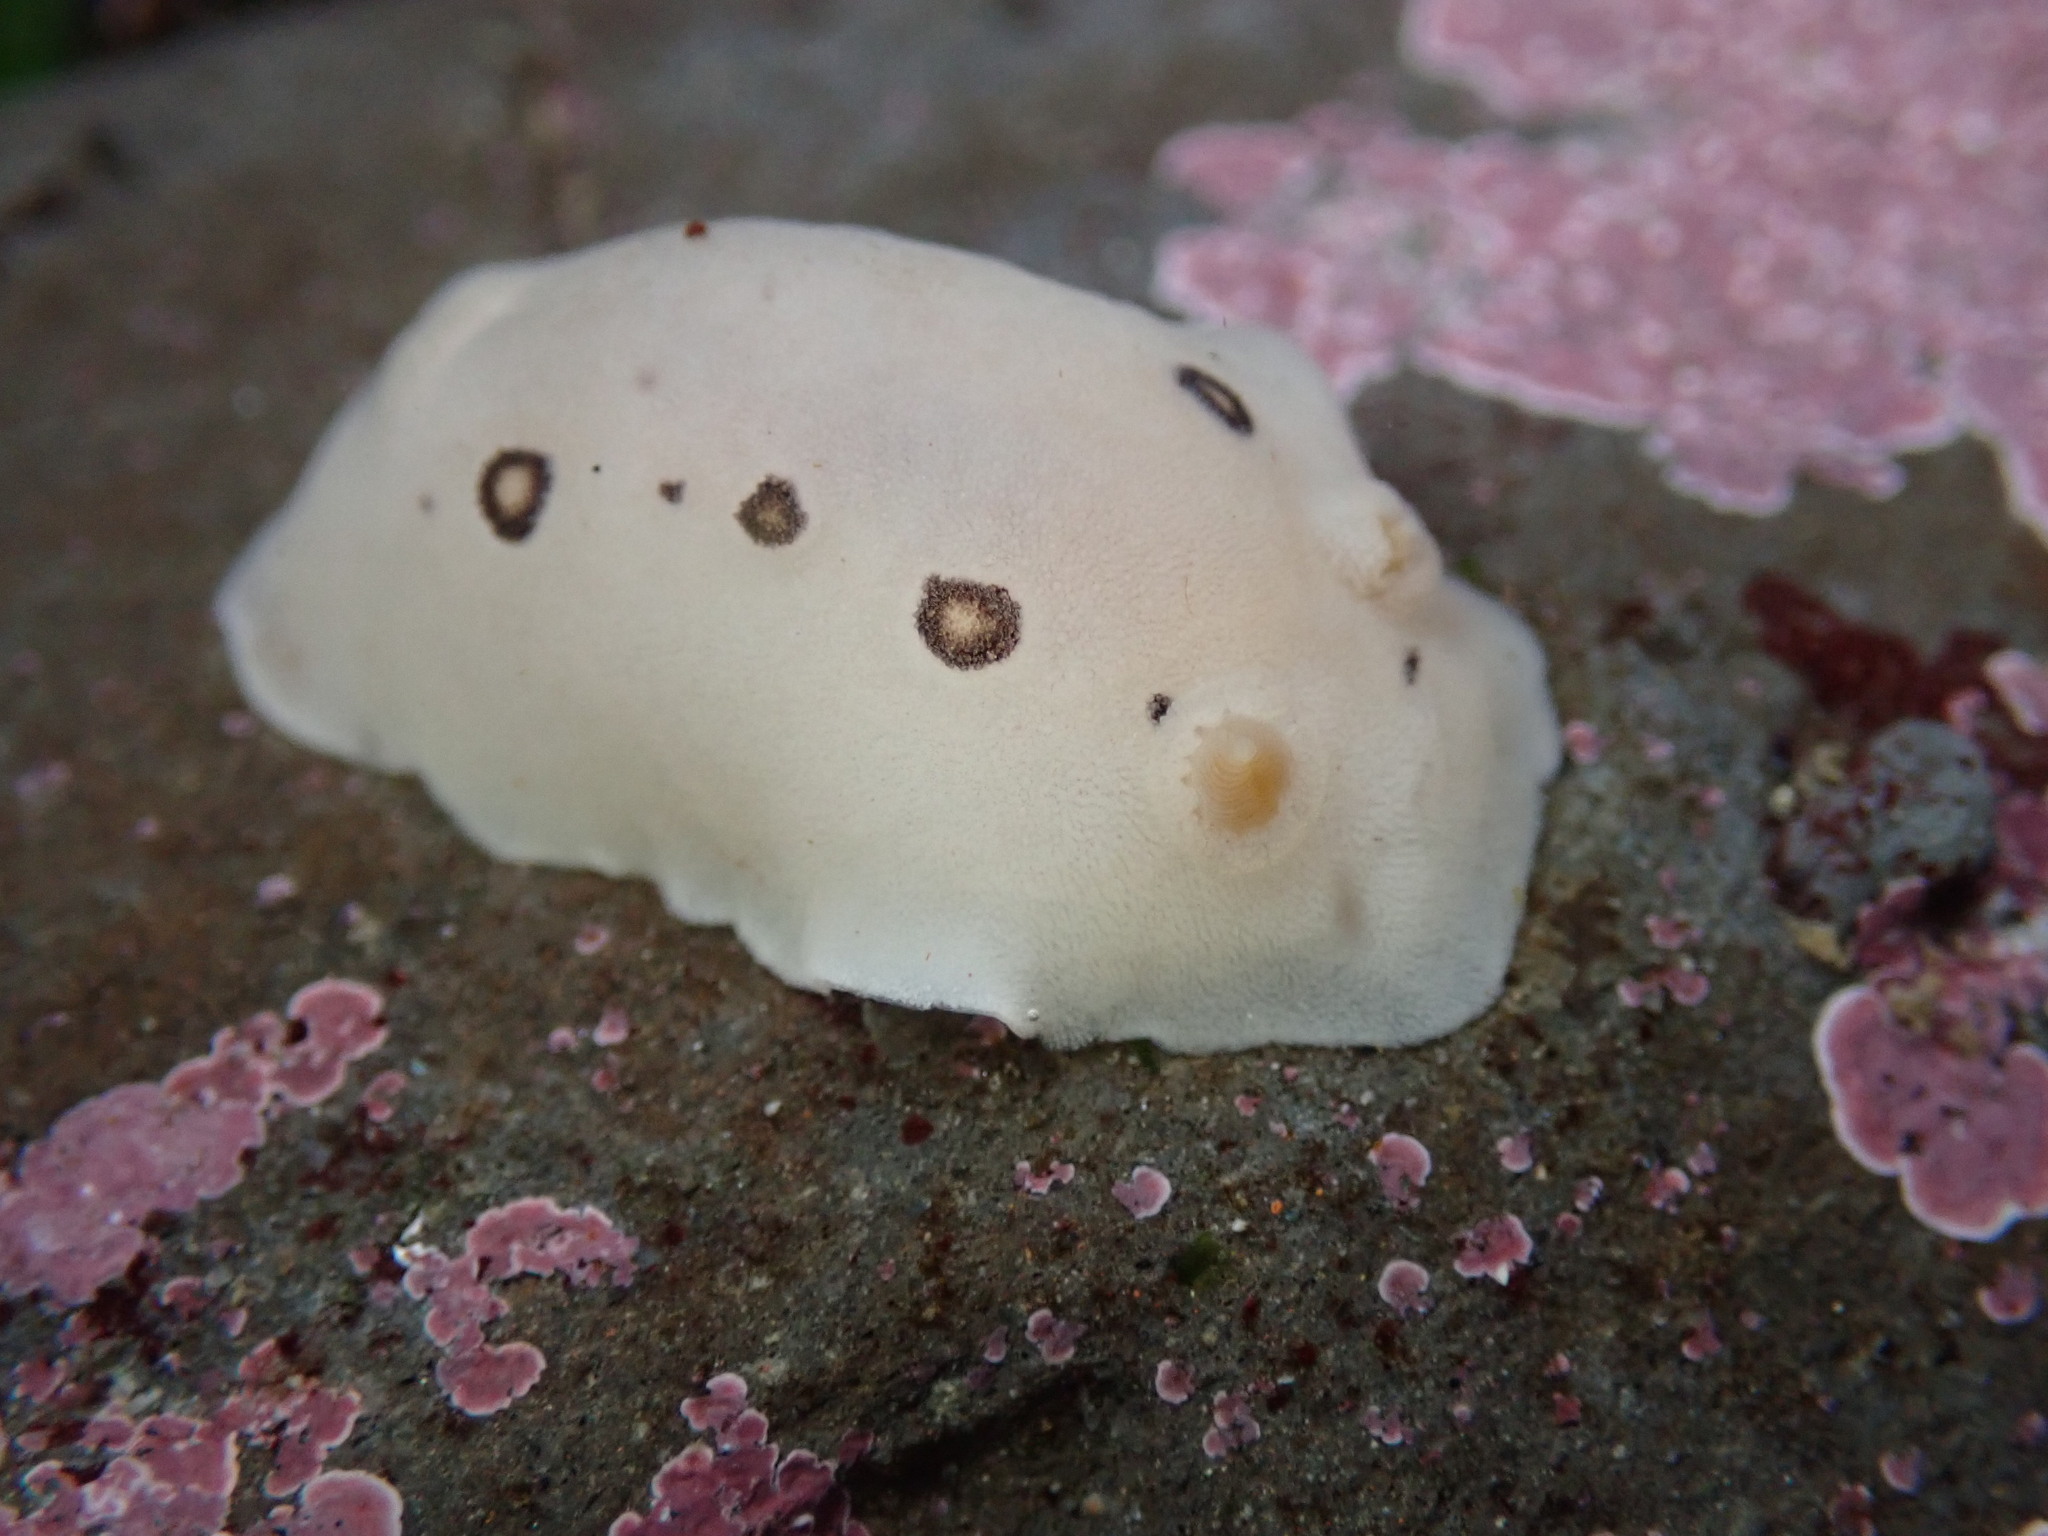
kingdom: Animalia
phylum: Mollusca
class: Gastropoda
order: Nudibranchia
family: Discodorididae
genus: Diaulula
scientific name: Diaulula sandiegensis
